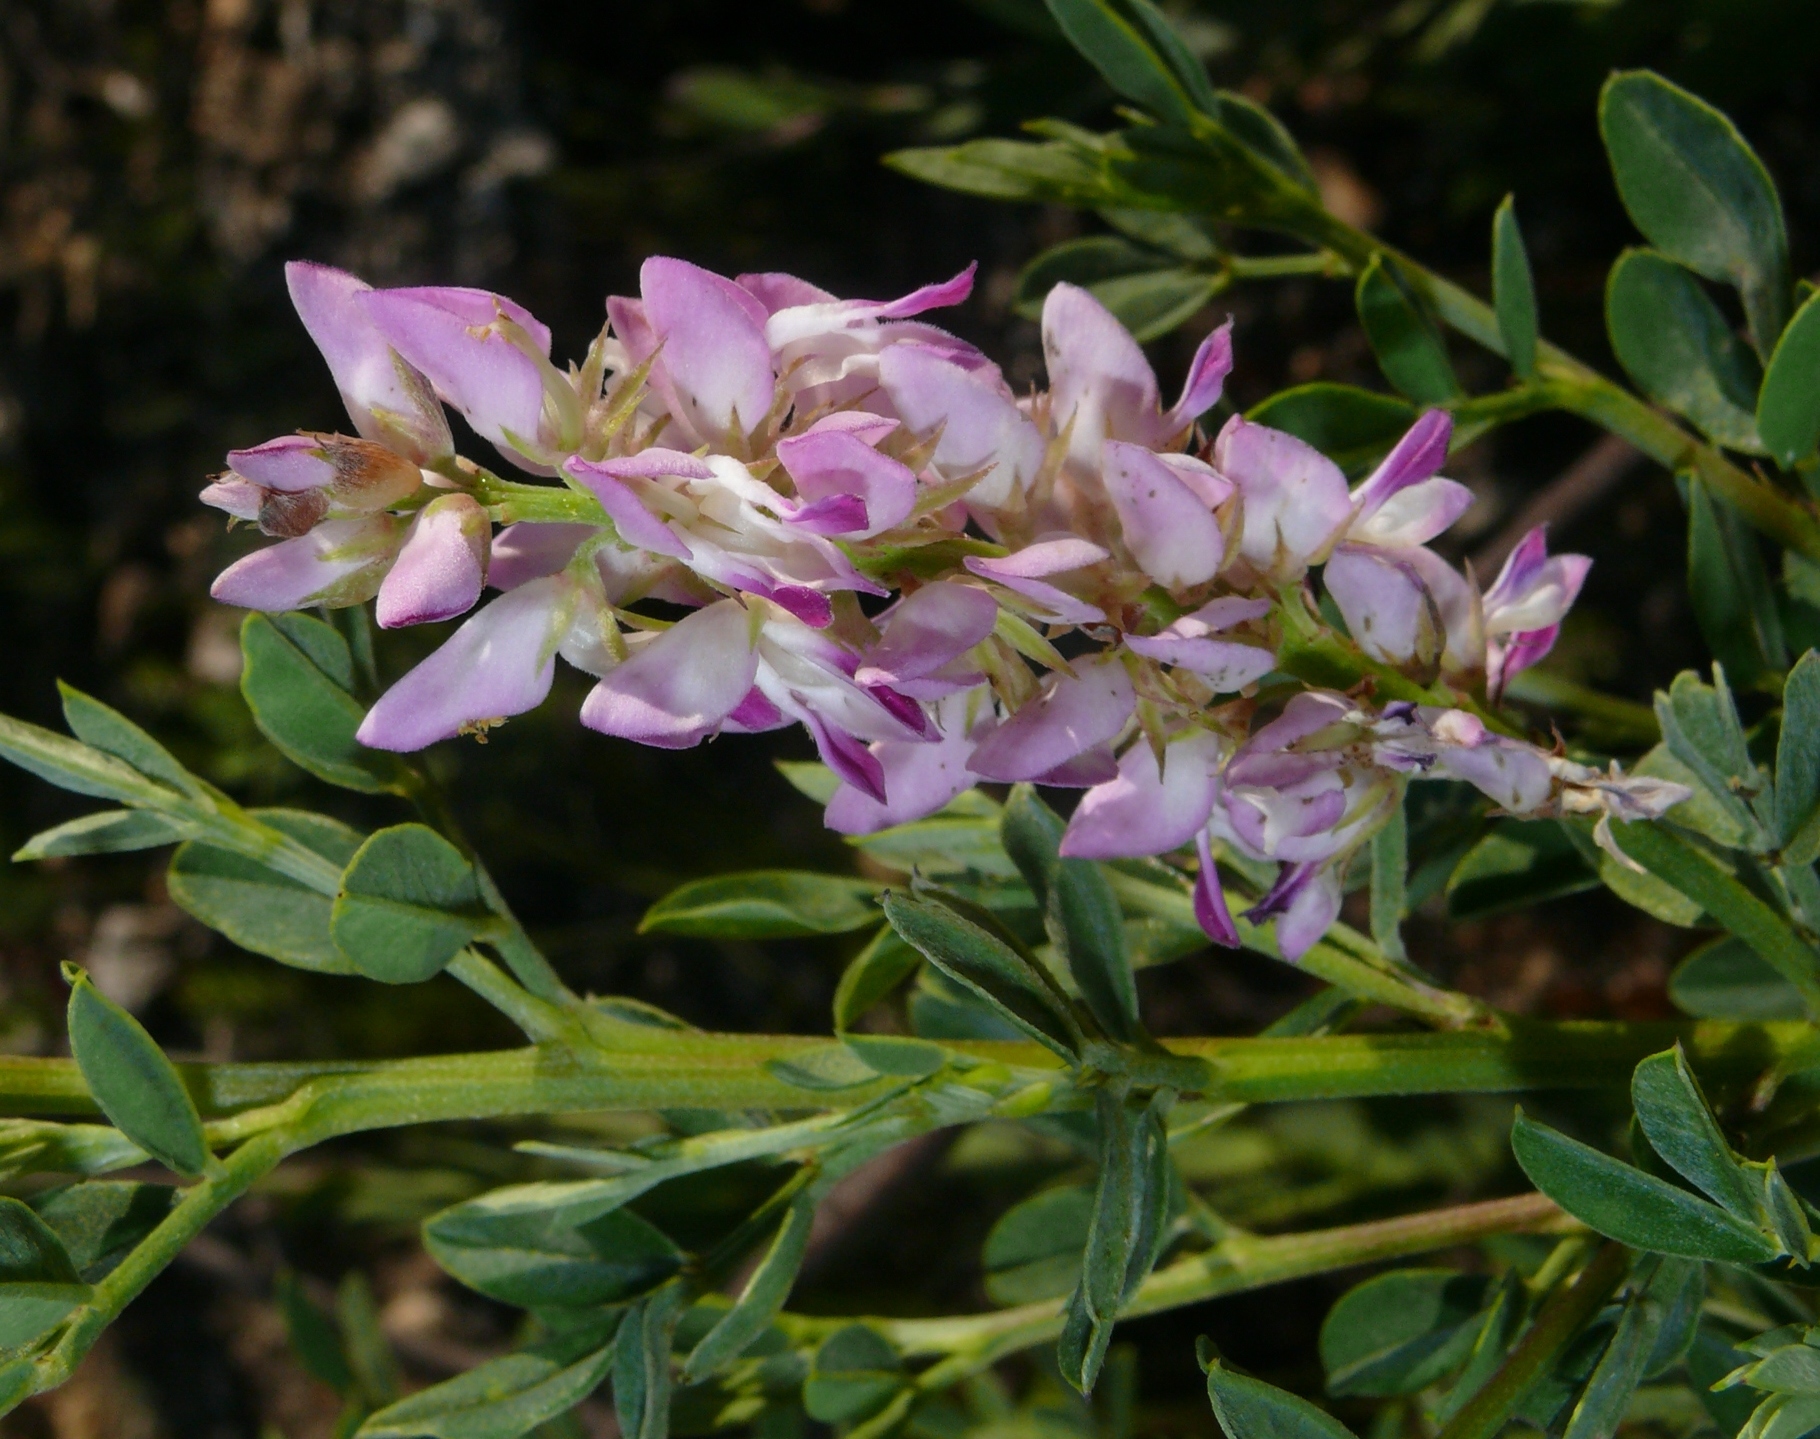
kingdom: Plantae
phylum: Tracheophyta
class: Magnoliopsida
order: Fabales
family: Fabaceae
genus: Indigofera
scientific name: Indigofera cytisoides
